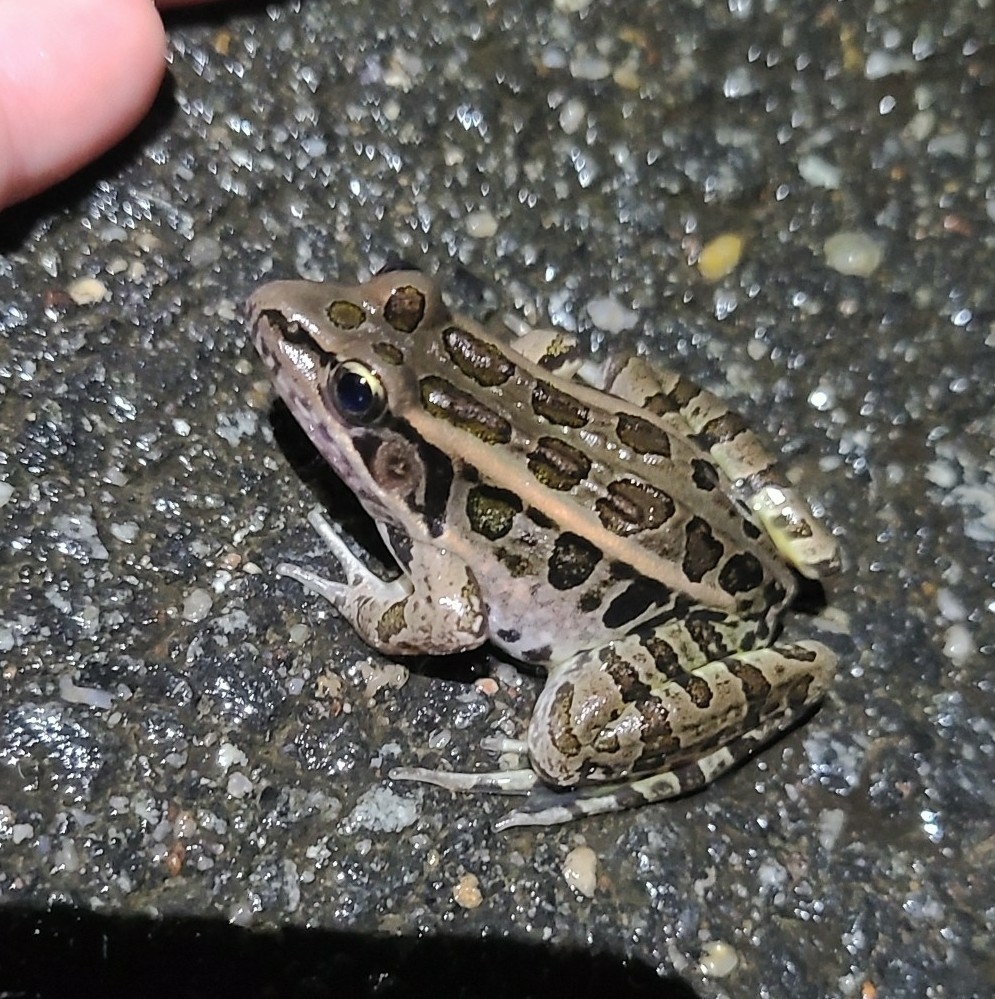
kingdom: Animalia
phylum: Chordata
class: Amphibia
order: Anura
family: Ranidae
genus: Lithobates
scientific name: Lithobates palustris
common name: Pickerel frog
